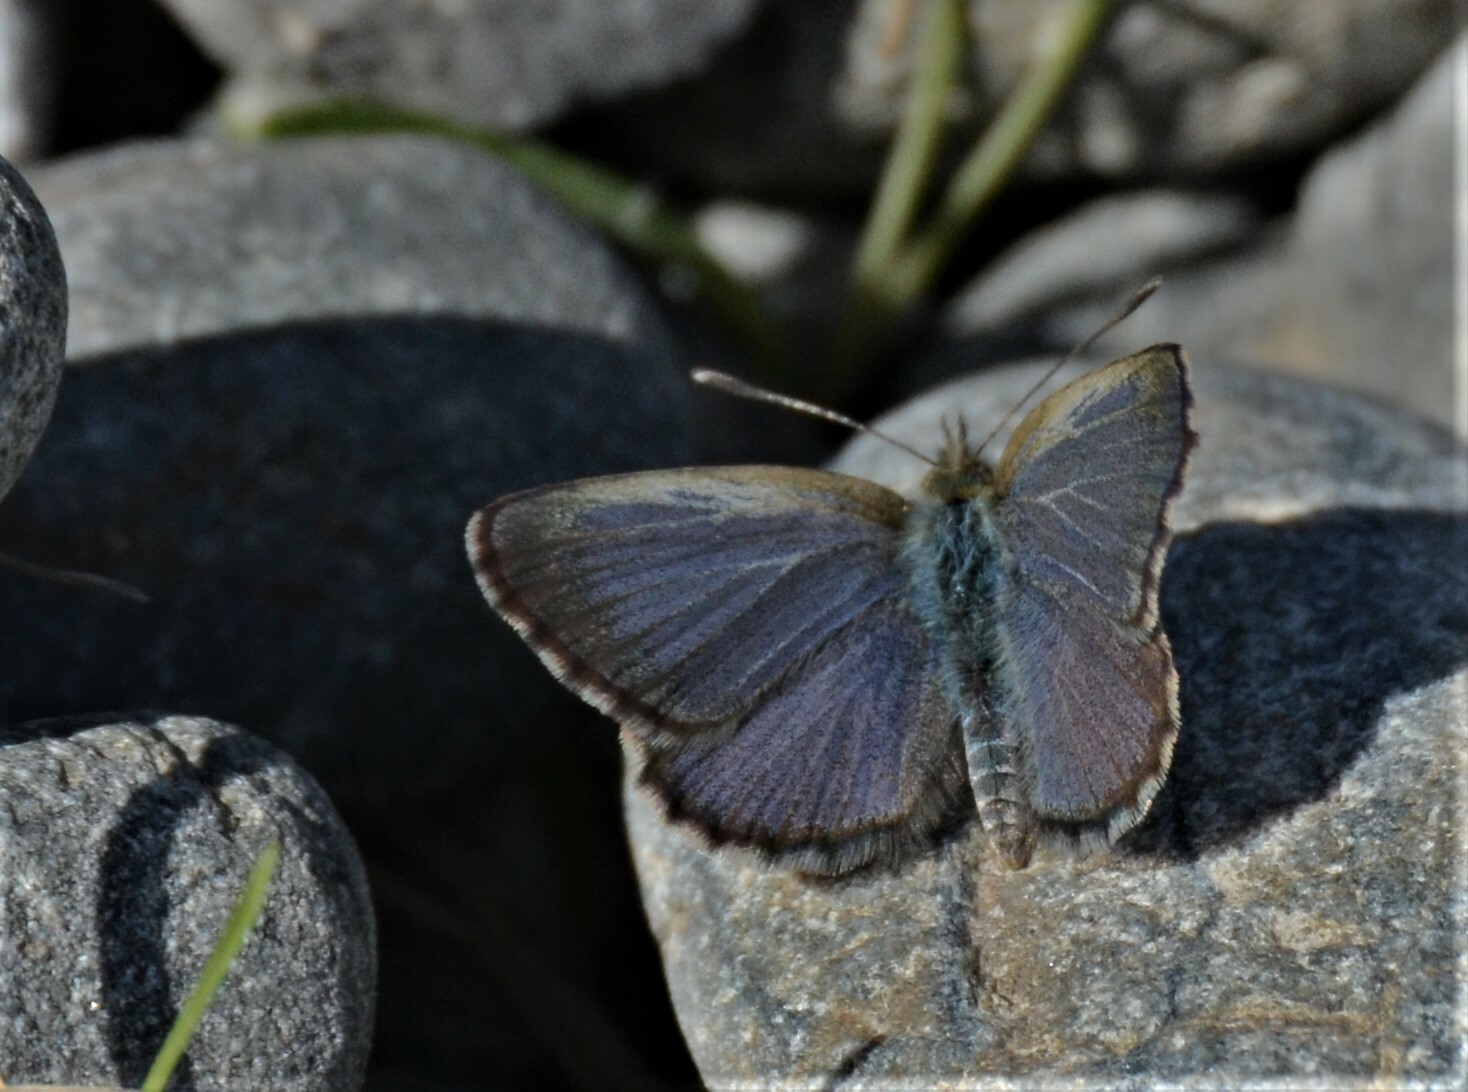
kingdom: Animalia
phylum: Arthropoda
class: Insecta
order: Lepidoptera
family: Lycaenidae
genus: Zizina
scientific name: Zizina oxleyi
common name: Southern blue
